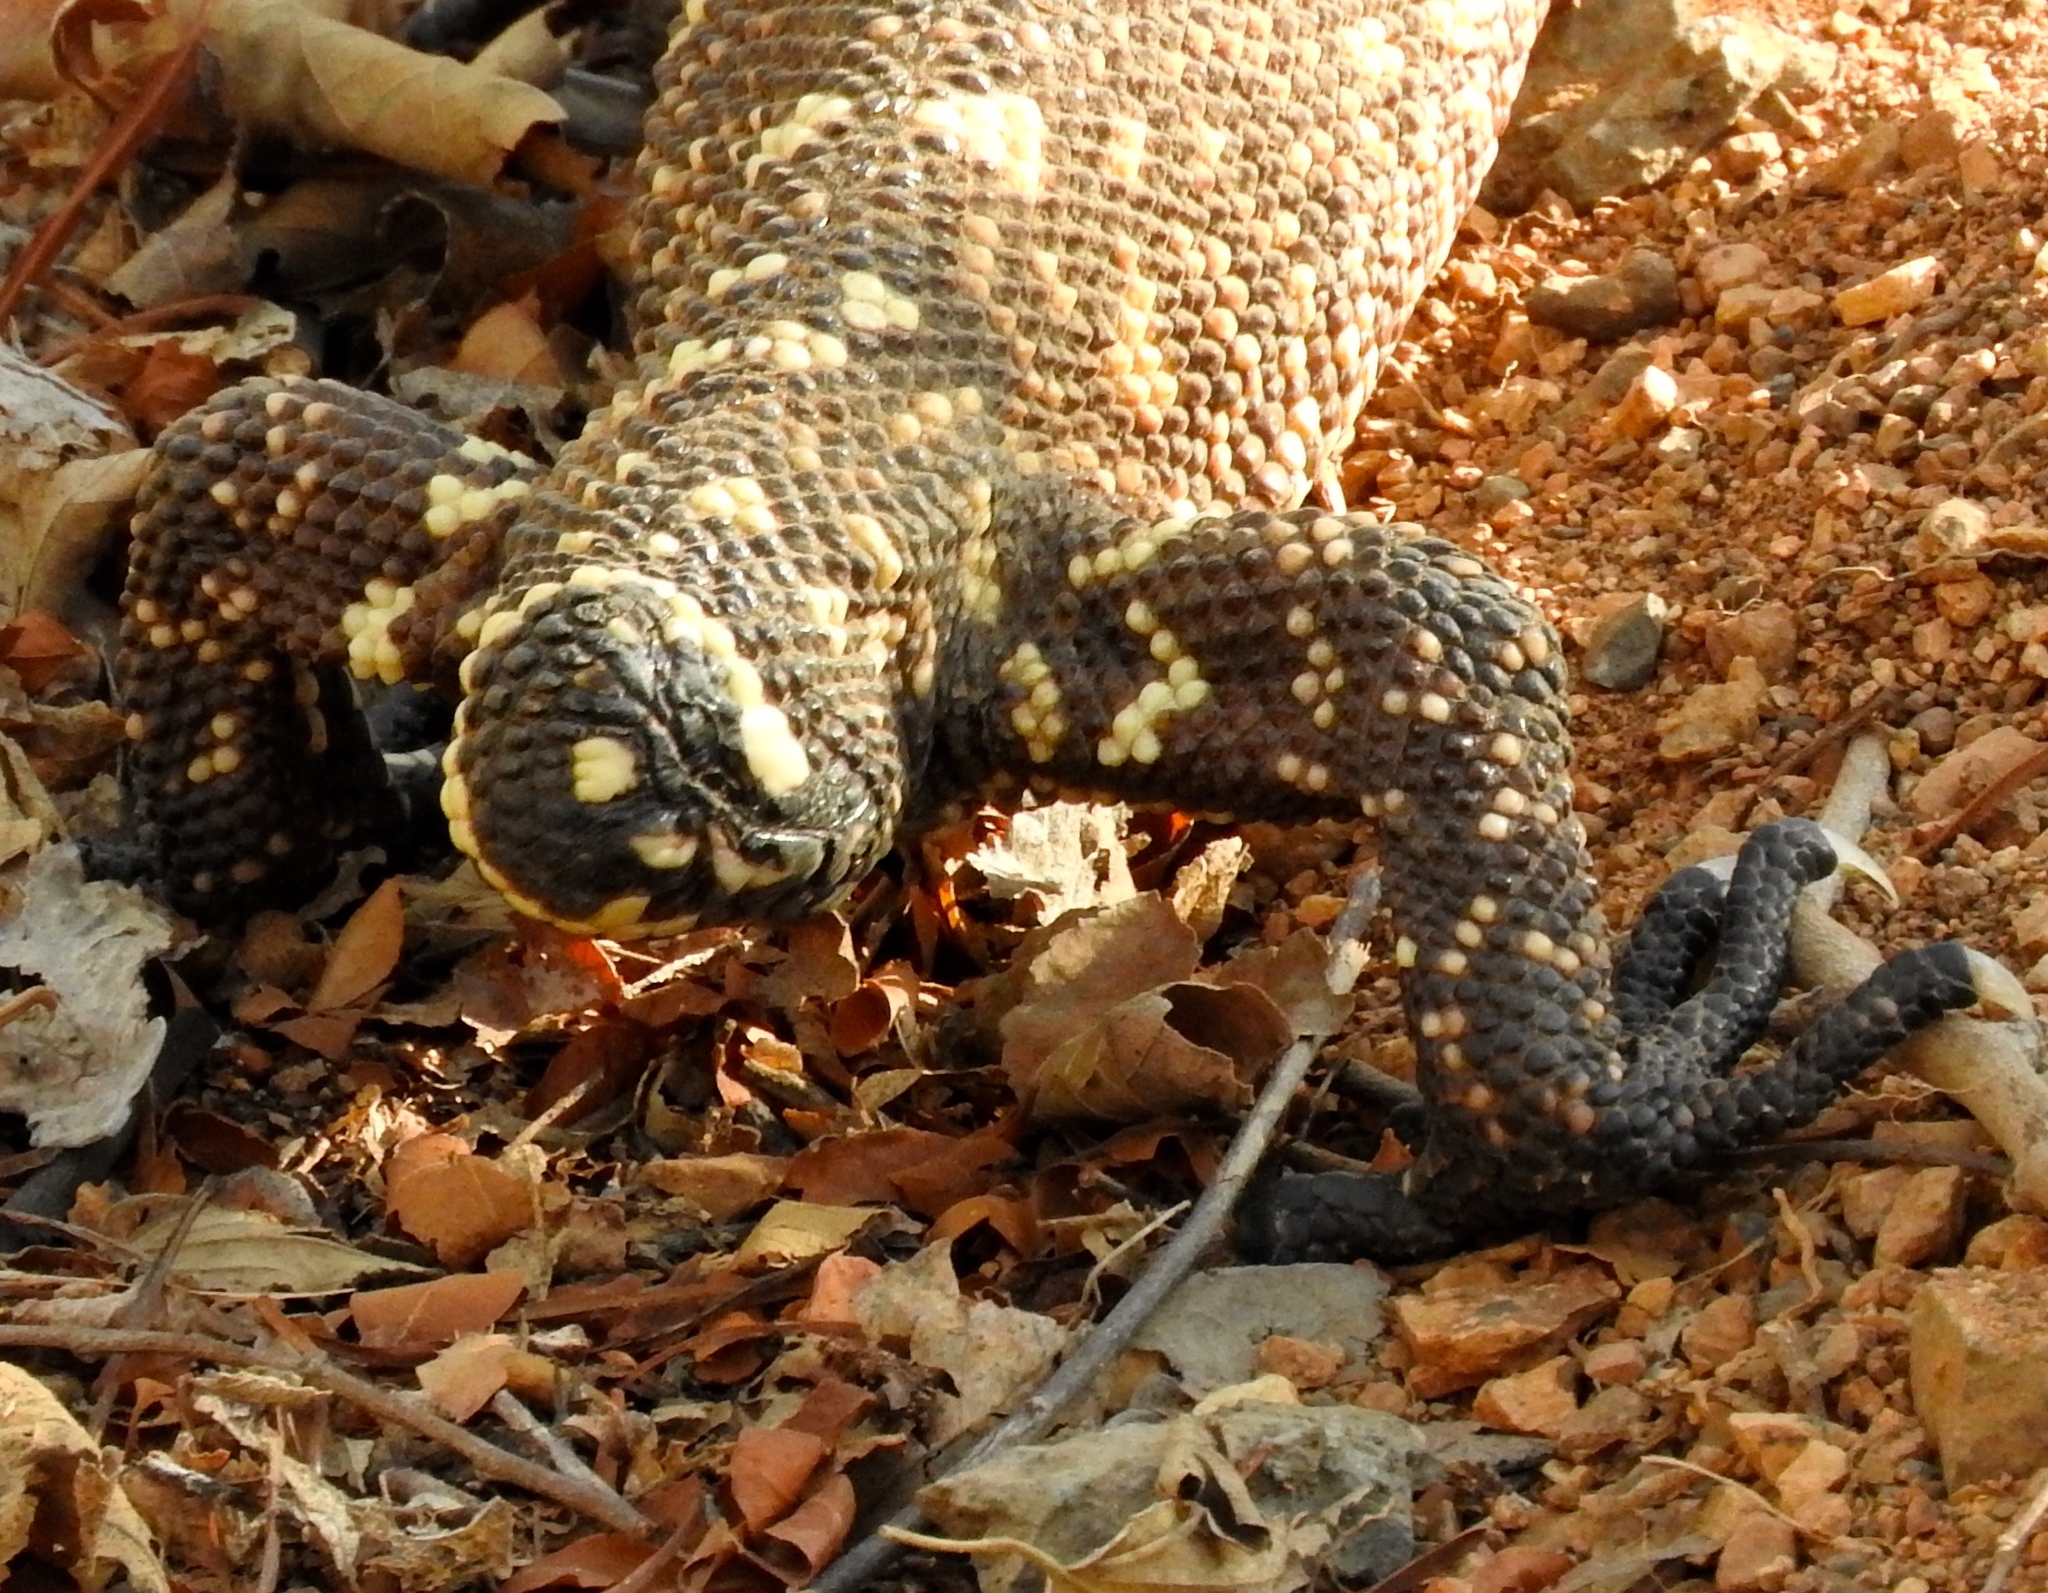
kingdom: Animalia
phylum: Chordata
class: Squamata
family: Helodermatidae
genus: Heloderma
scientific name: Heloderma horridum
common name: Mexican beaded lizard
